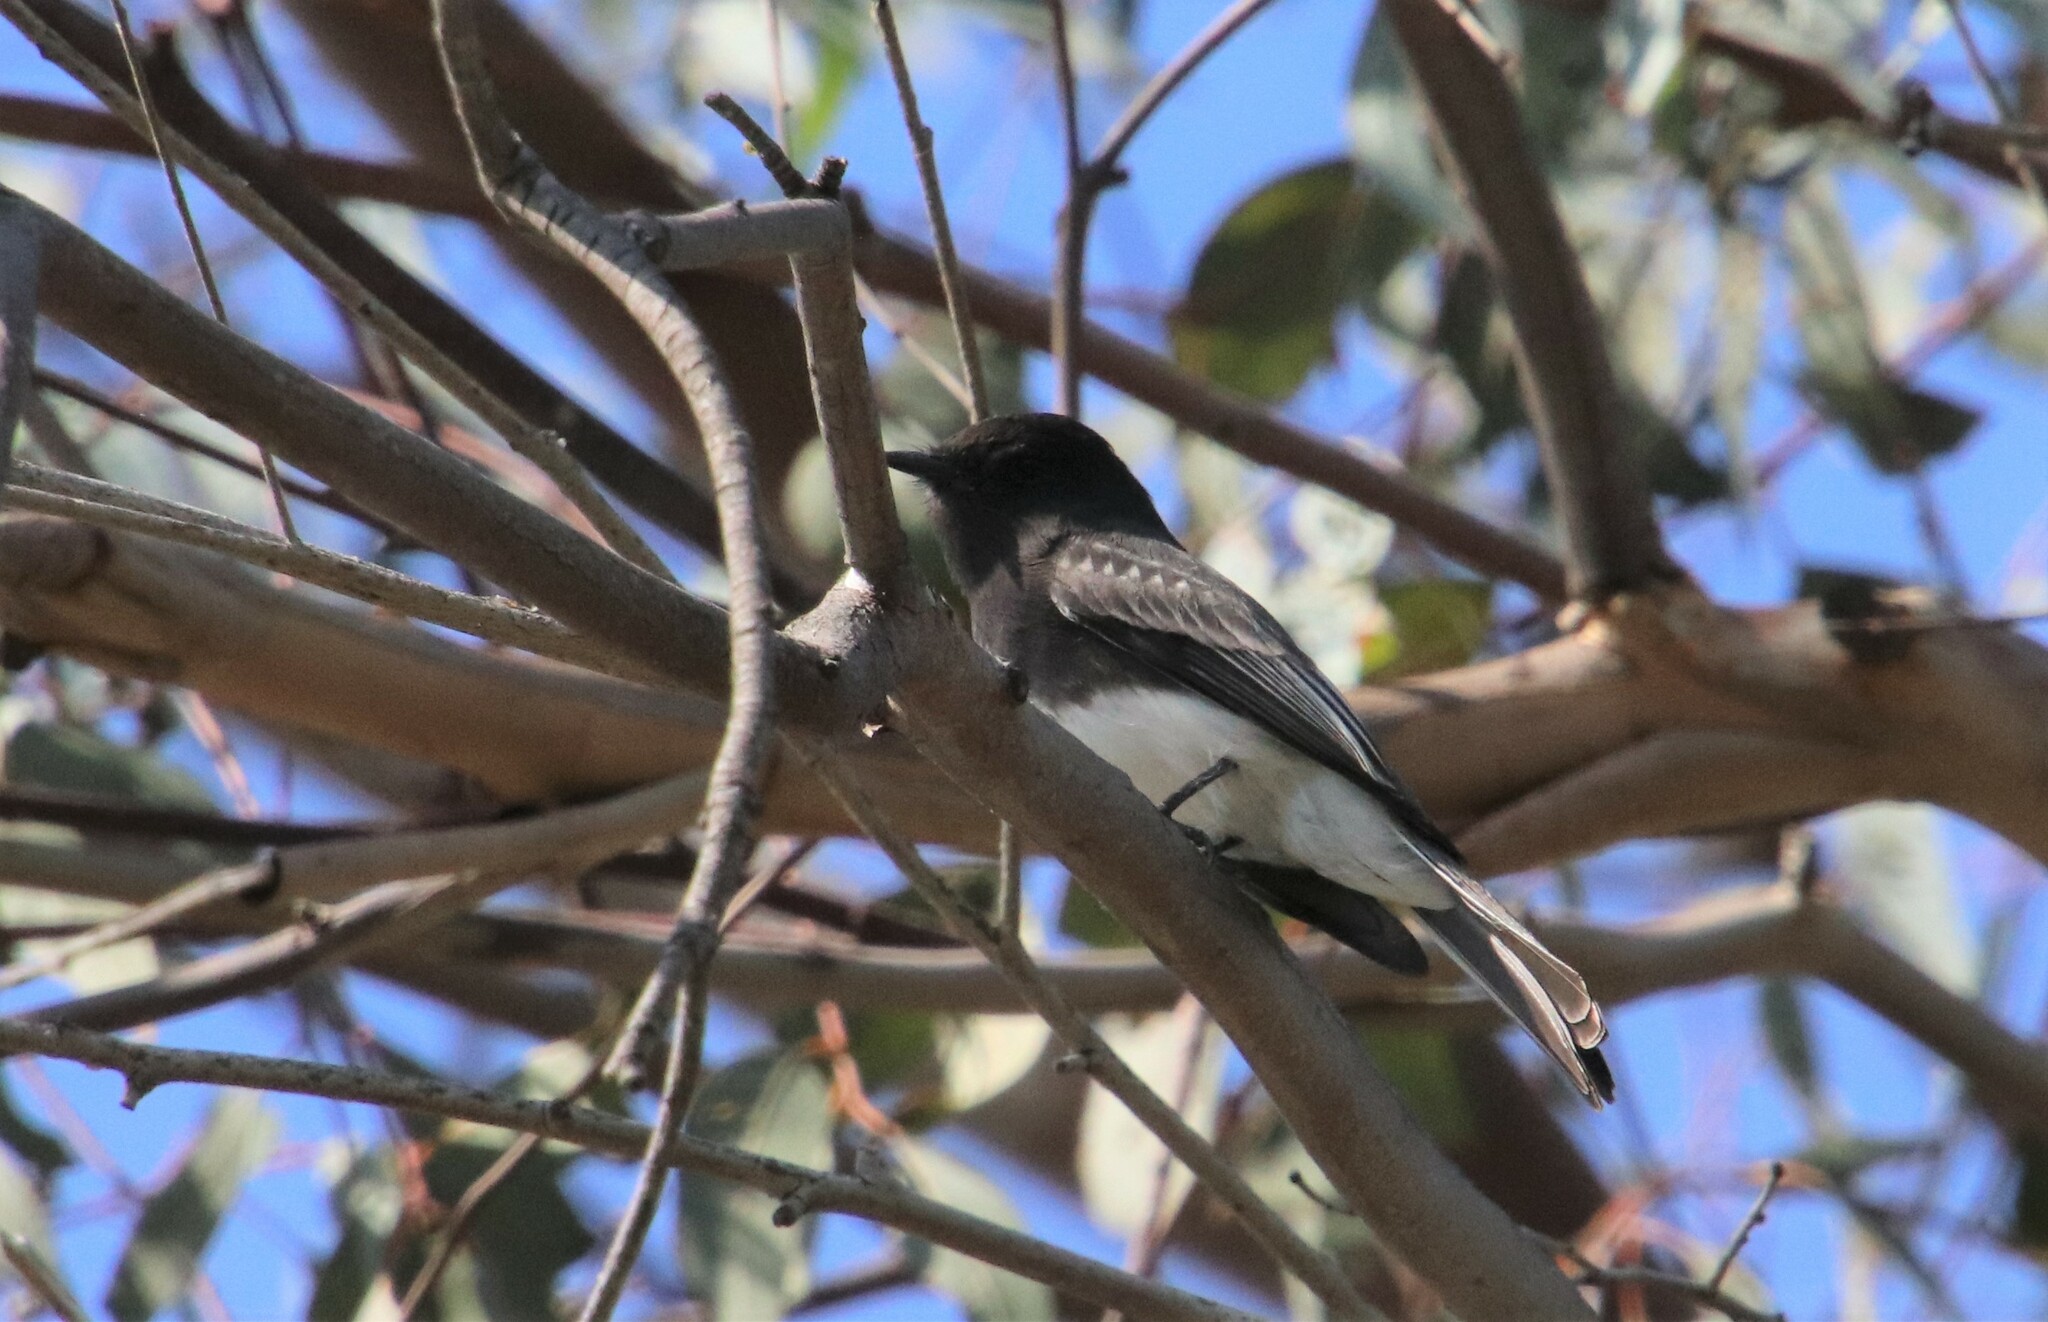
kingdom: Animalia
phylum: Chordata
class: Aves
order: Passeriformes
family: Tyrannidae
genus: Sayornis
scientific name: Sayornis nigricans
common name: Black phoebe
